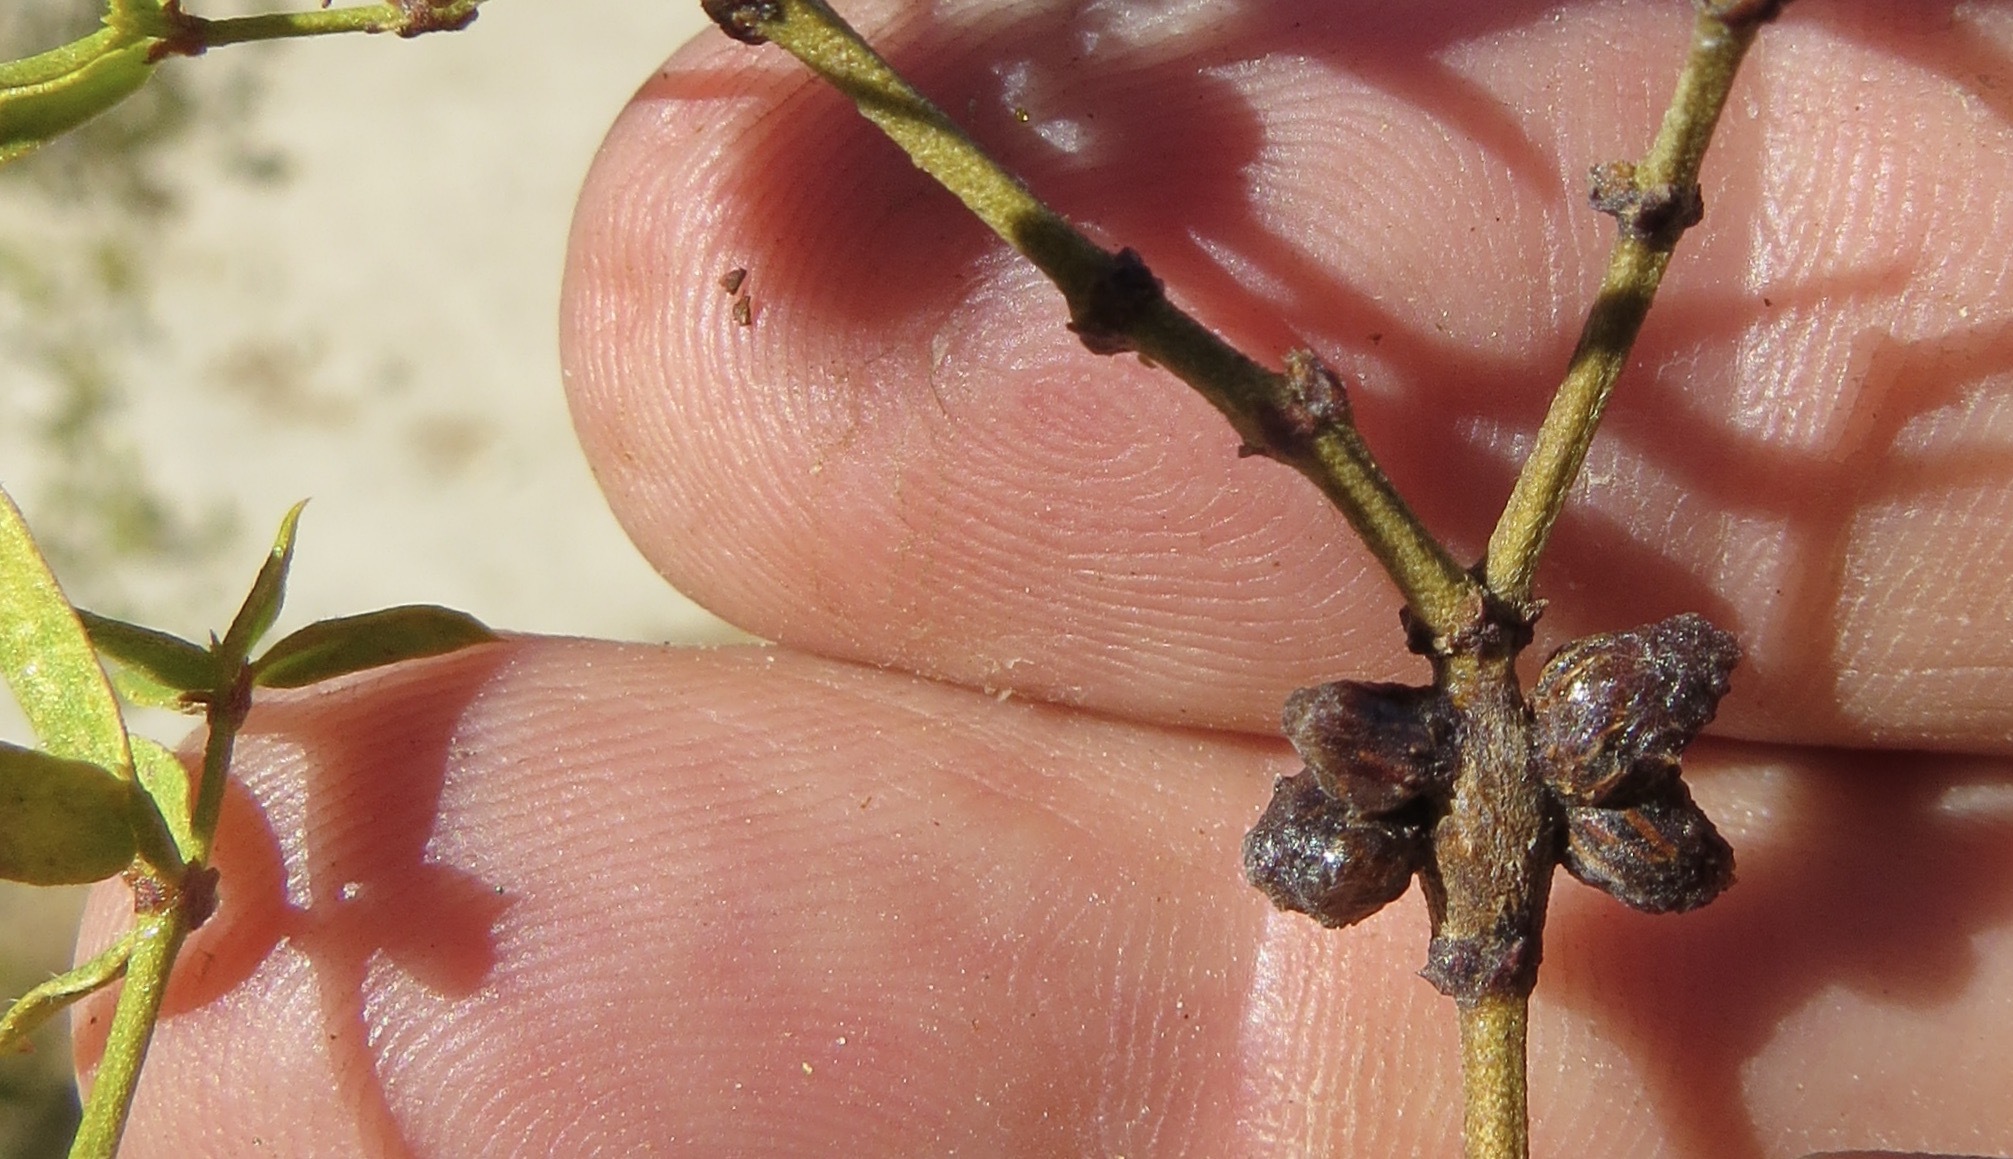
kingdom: Animalia
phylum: Arthropoda
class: Insecta
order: Diptera
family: Cecidomyiidae
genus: Asphondylia
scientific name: Asphondylia resinosa
